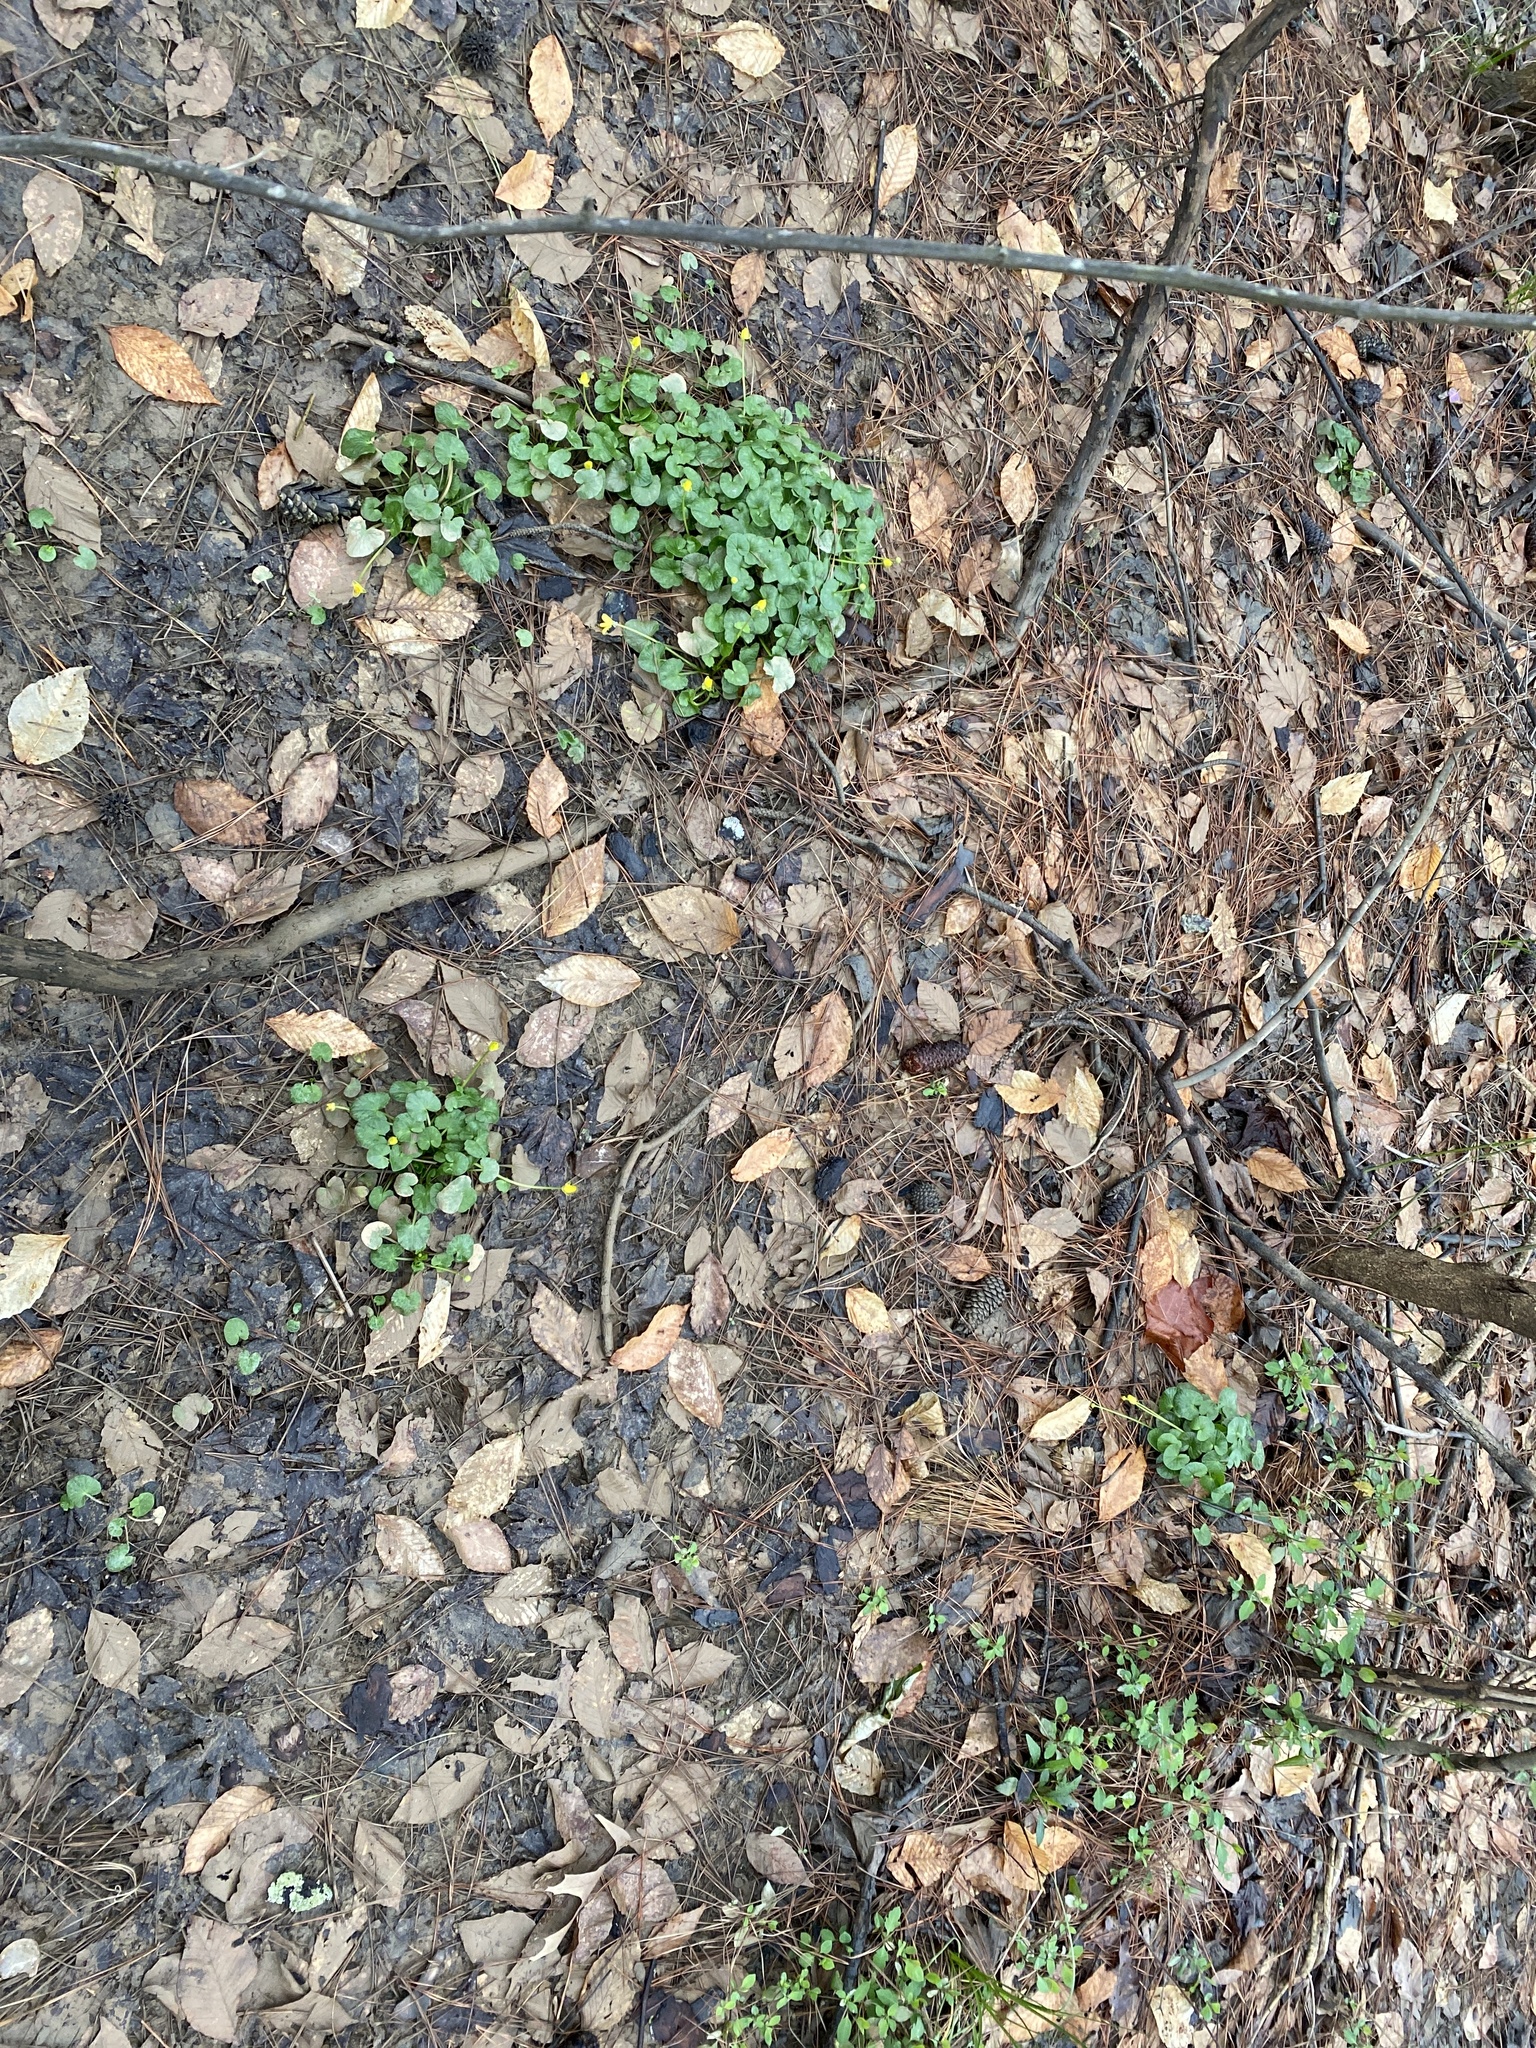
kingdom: Plantae
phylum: Tracheophyta
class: Magnoliopsida
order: Ranunculales
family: Ranunculaceae
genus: Ficaria
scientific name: Ficaria verna
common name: Lesser celandine
